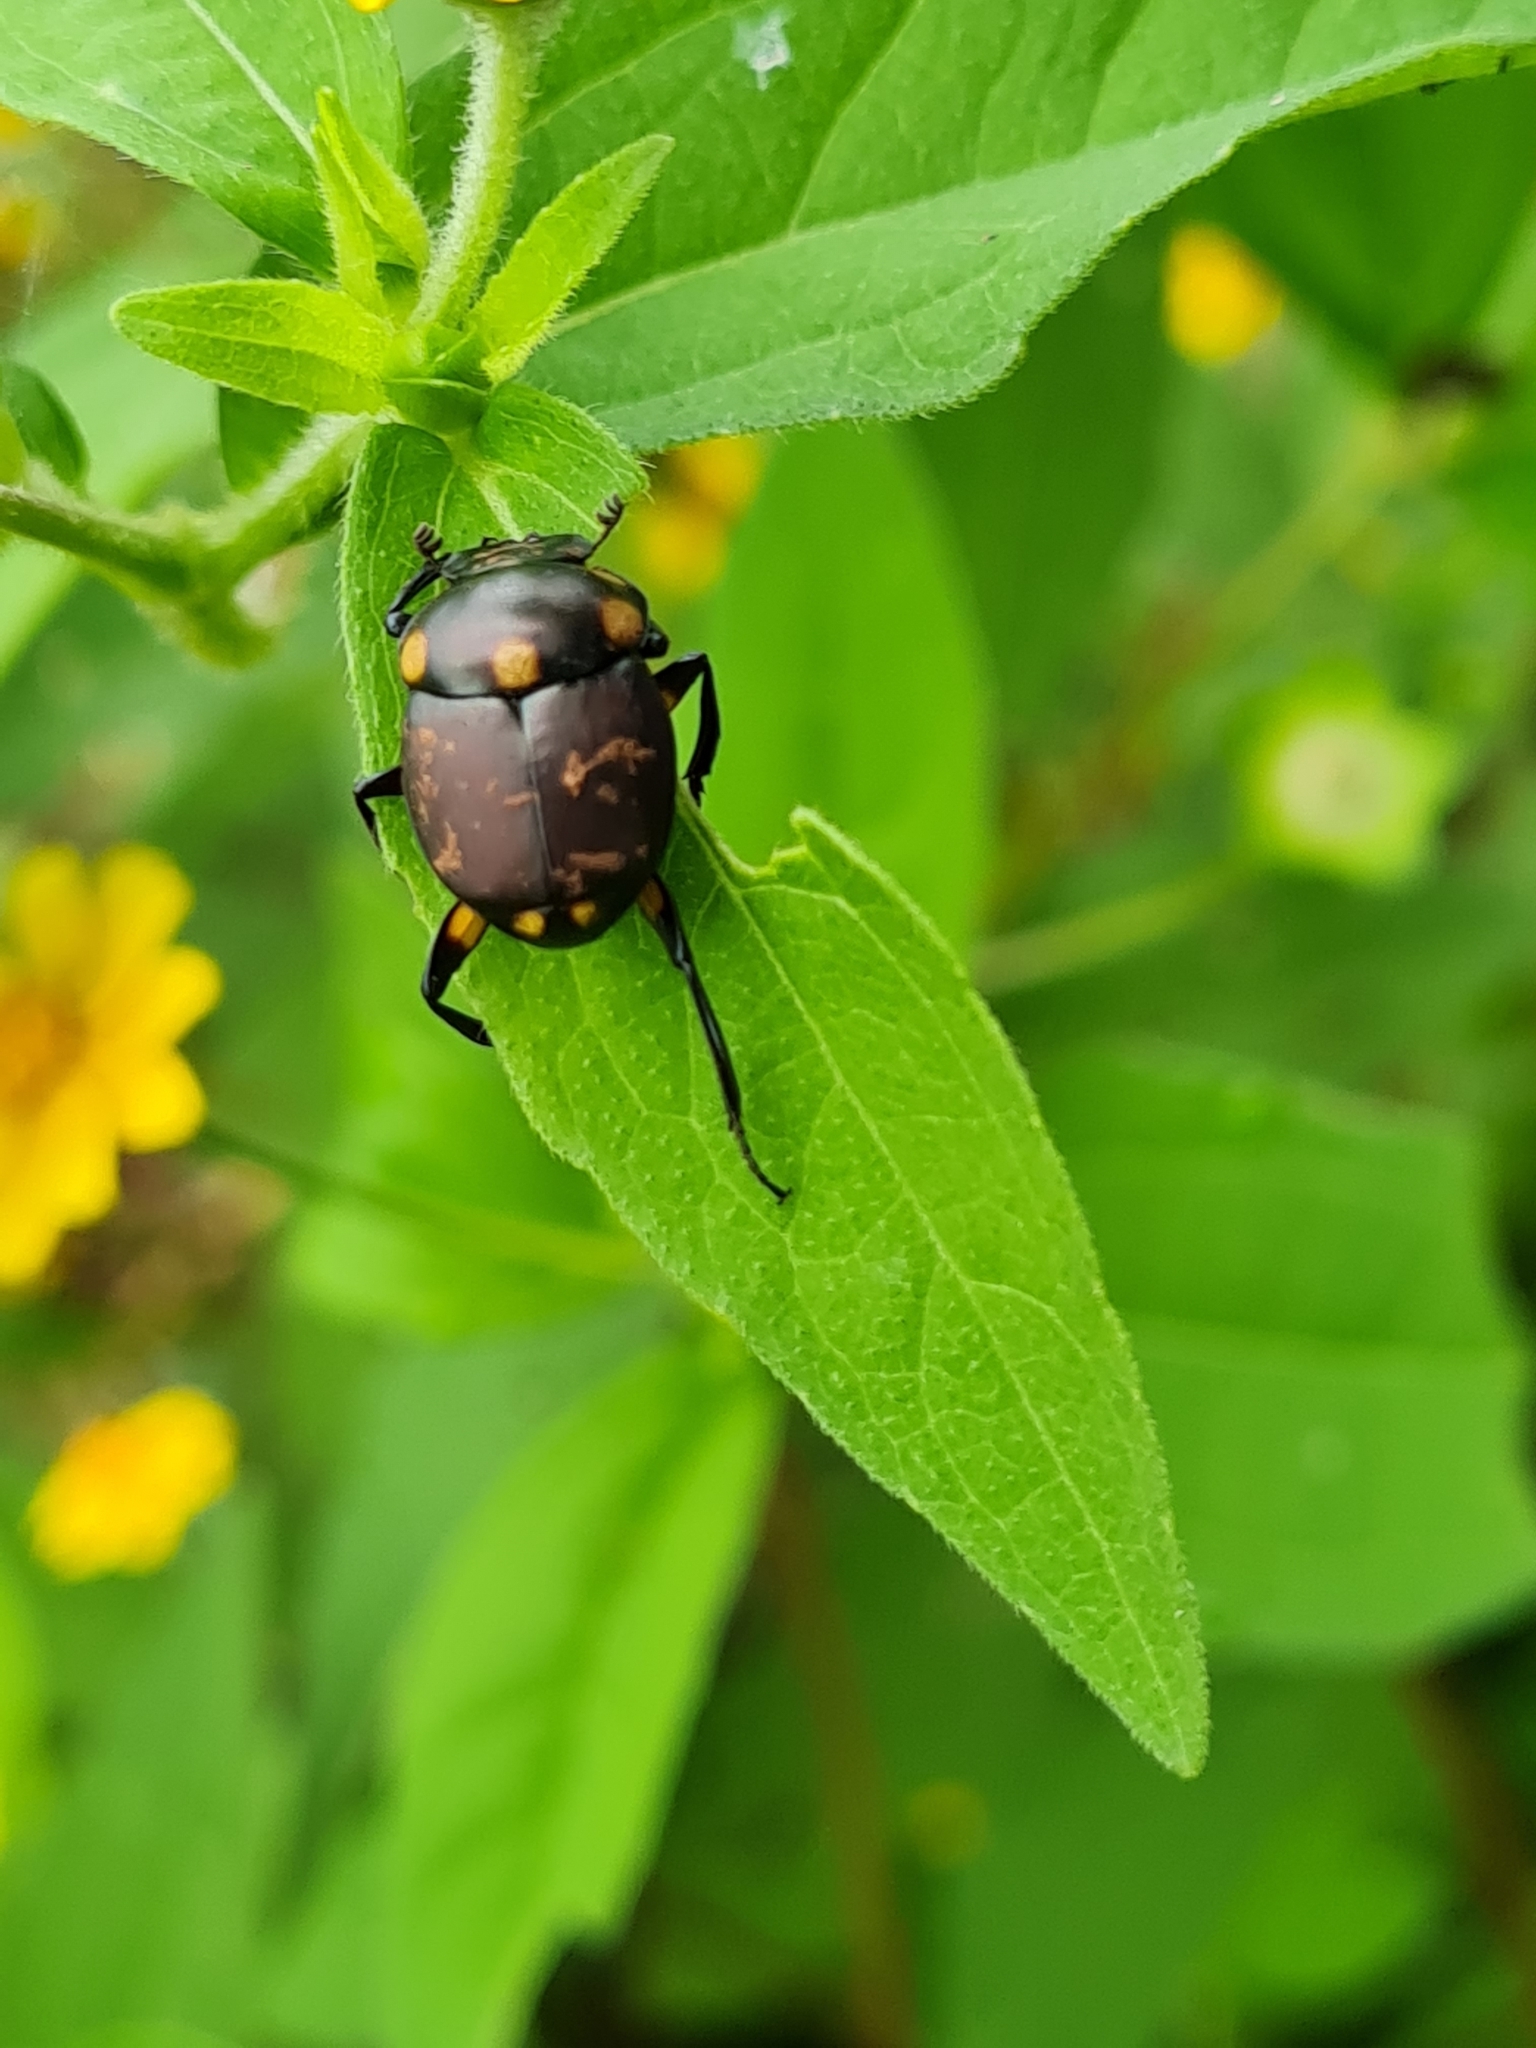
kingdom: Animalia
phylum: Arthropoda
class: Insecta
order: Coleoptera
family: Scarabaeidae
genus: Canthon
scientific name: Canthon septemmaculatus
